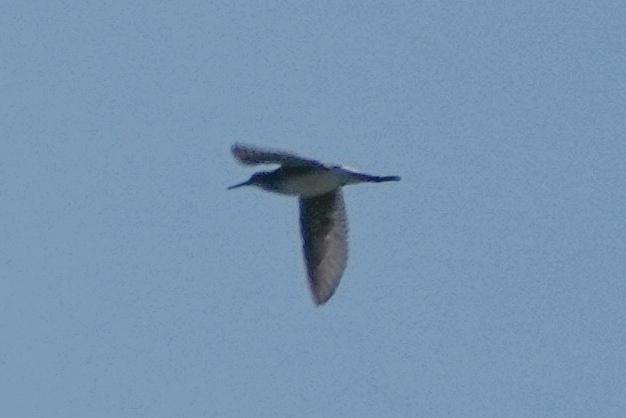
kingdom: Animalia
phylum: Chordata
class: Aves
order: Charadriiformes
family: Scolopacidae
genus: Tringa
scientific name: Tringa glareola
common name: Wood sandpiper
